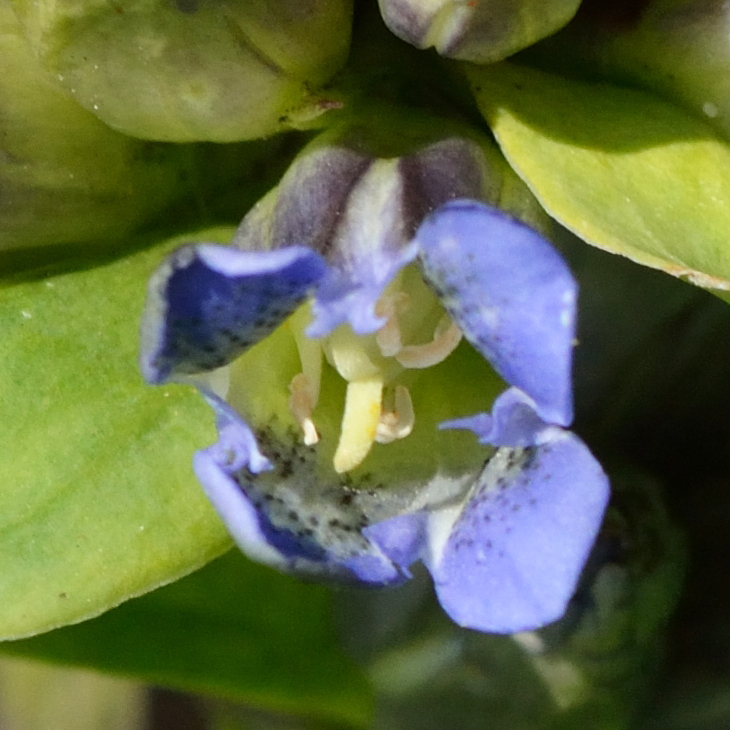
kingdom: Plantae
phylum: Tracheophyta
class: Magnoliopsida
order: Gentianales
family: Gentianaceae
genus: Gentiana
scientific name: Gentiana cruciata
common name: Cross gentian
